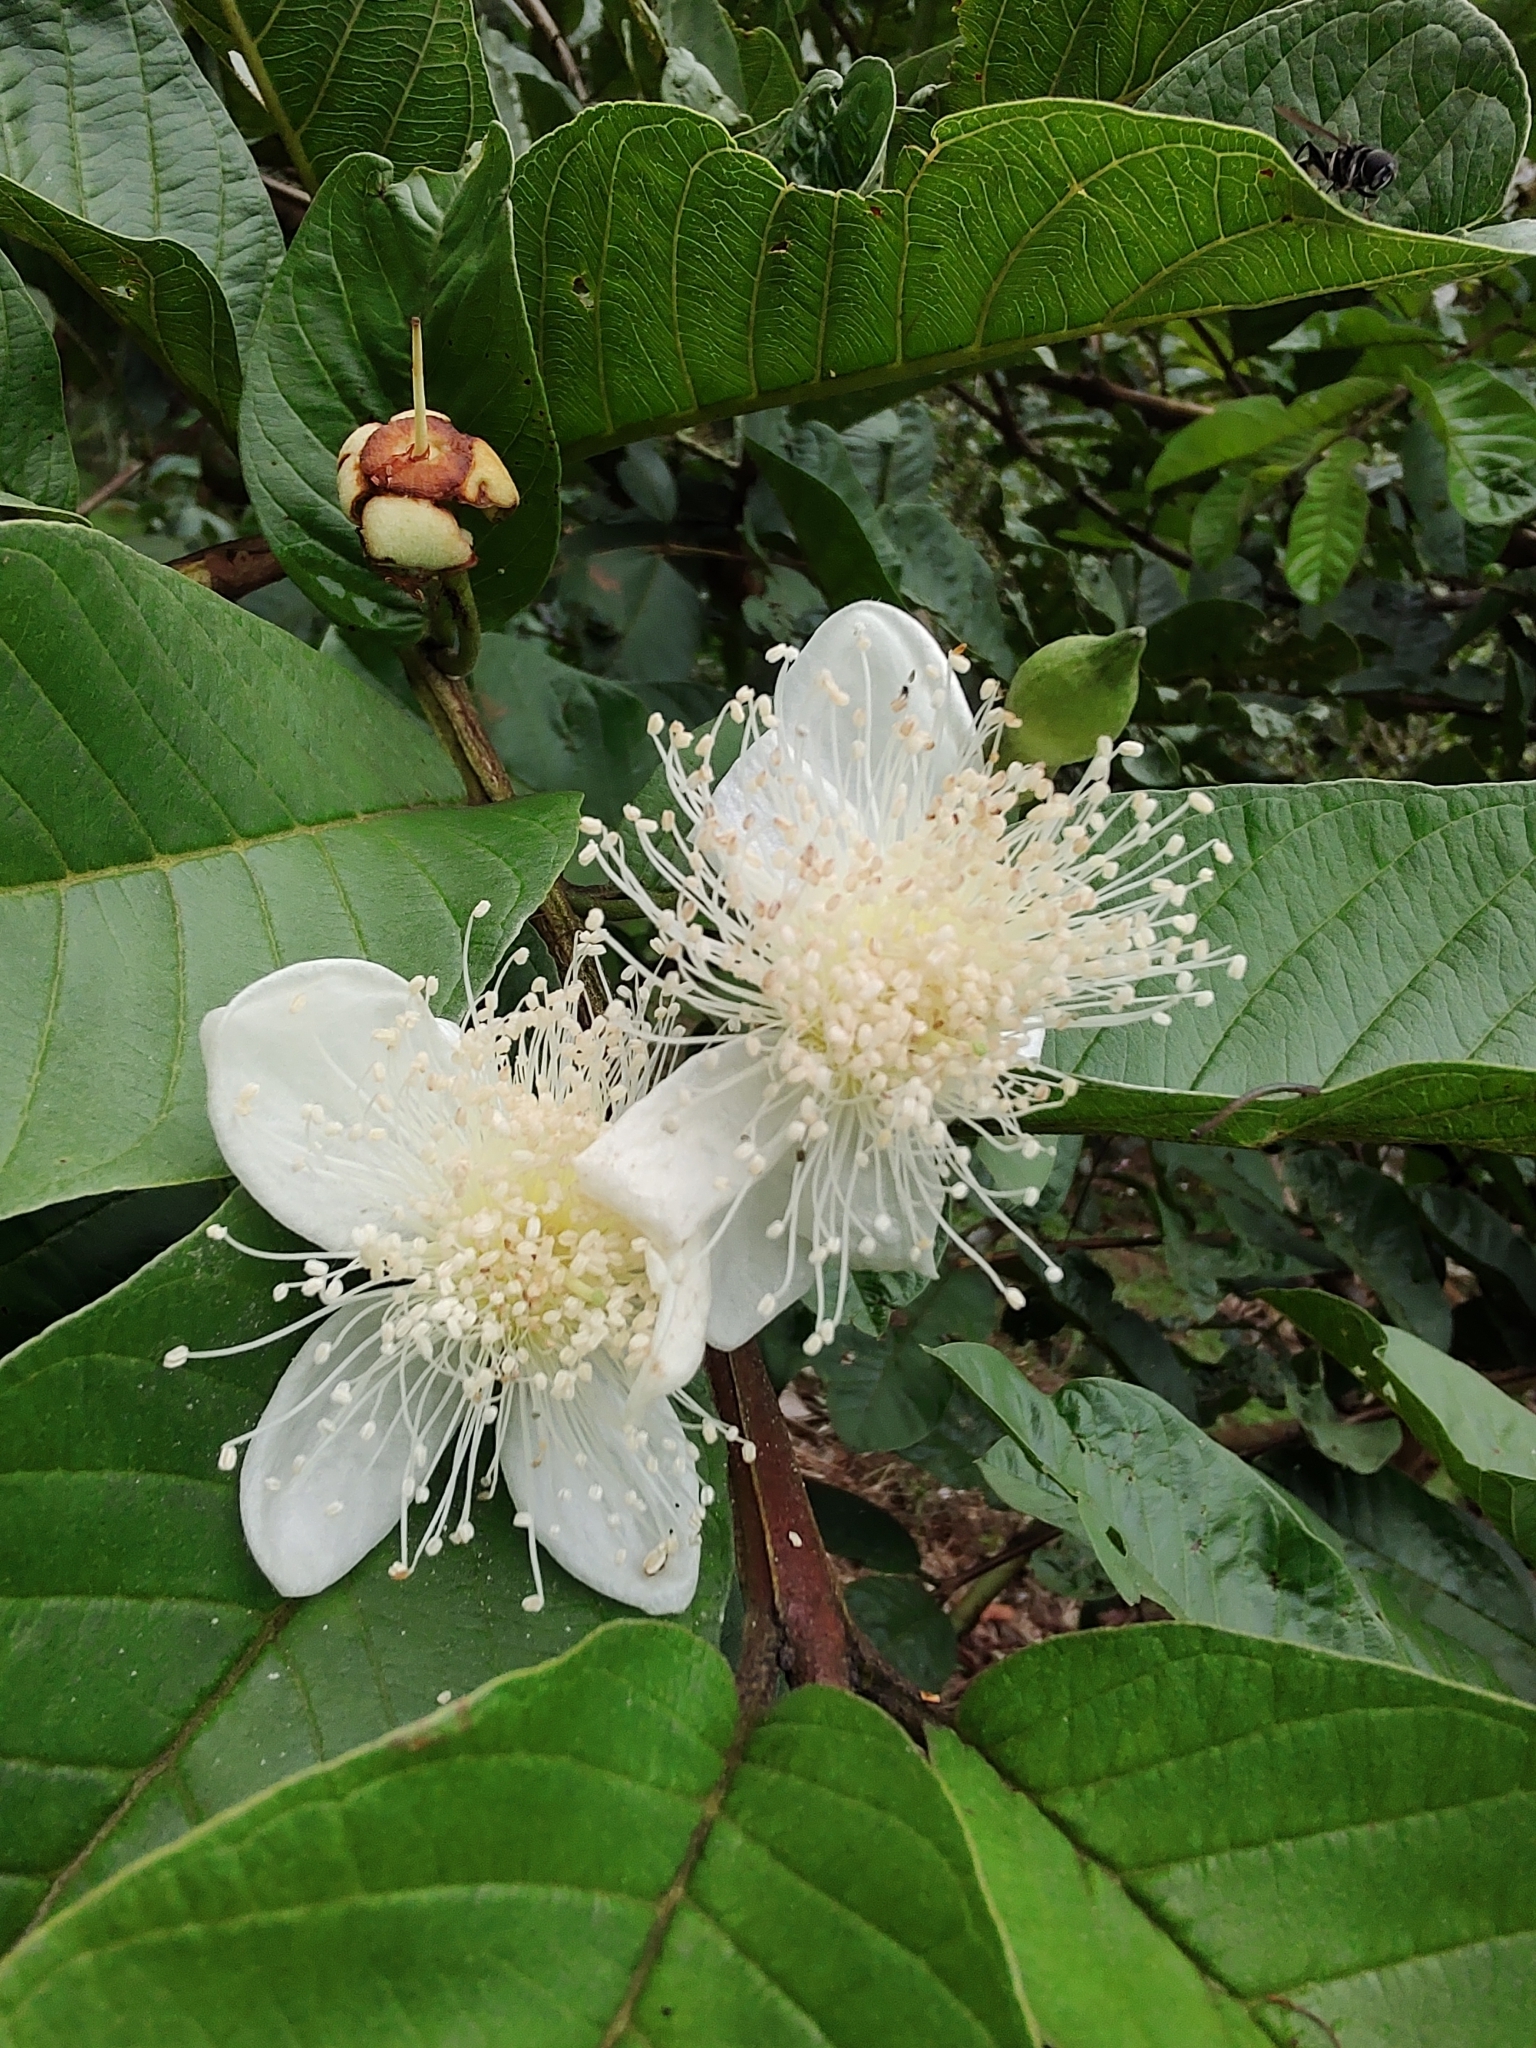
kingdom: Plantae
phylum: Tracheophyta
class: Magnoliopsida
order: Myrtales
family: Myrtaceae
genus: Psidium
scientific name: Psidium guajava
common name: Guava
